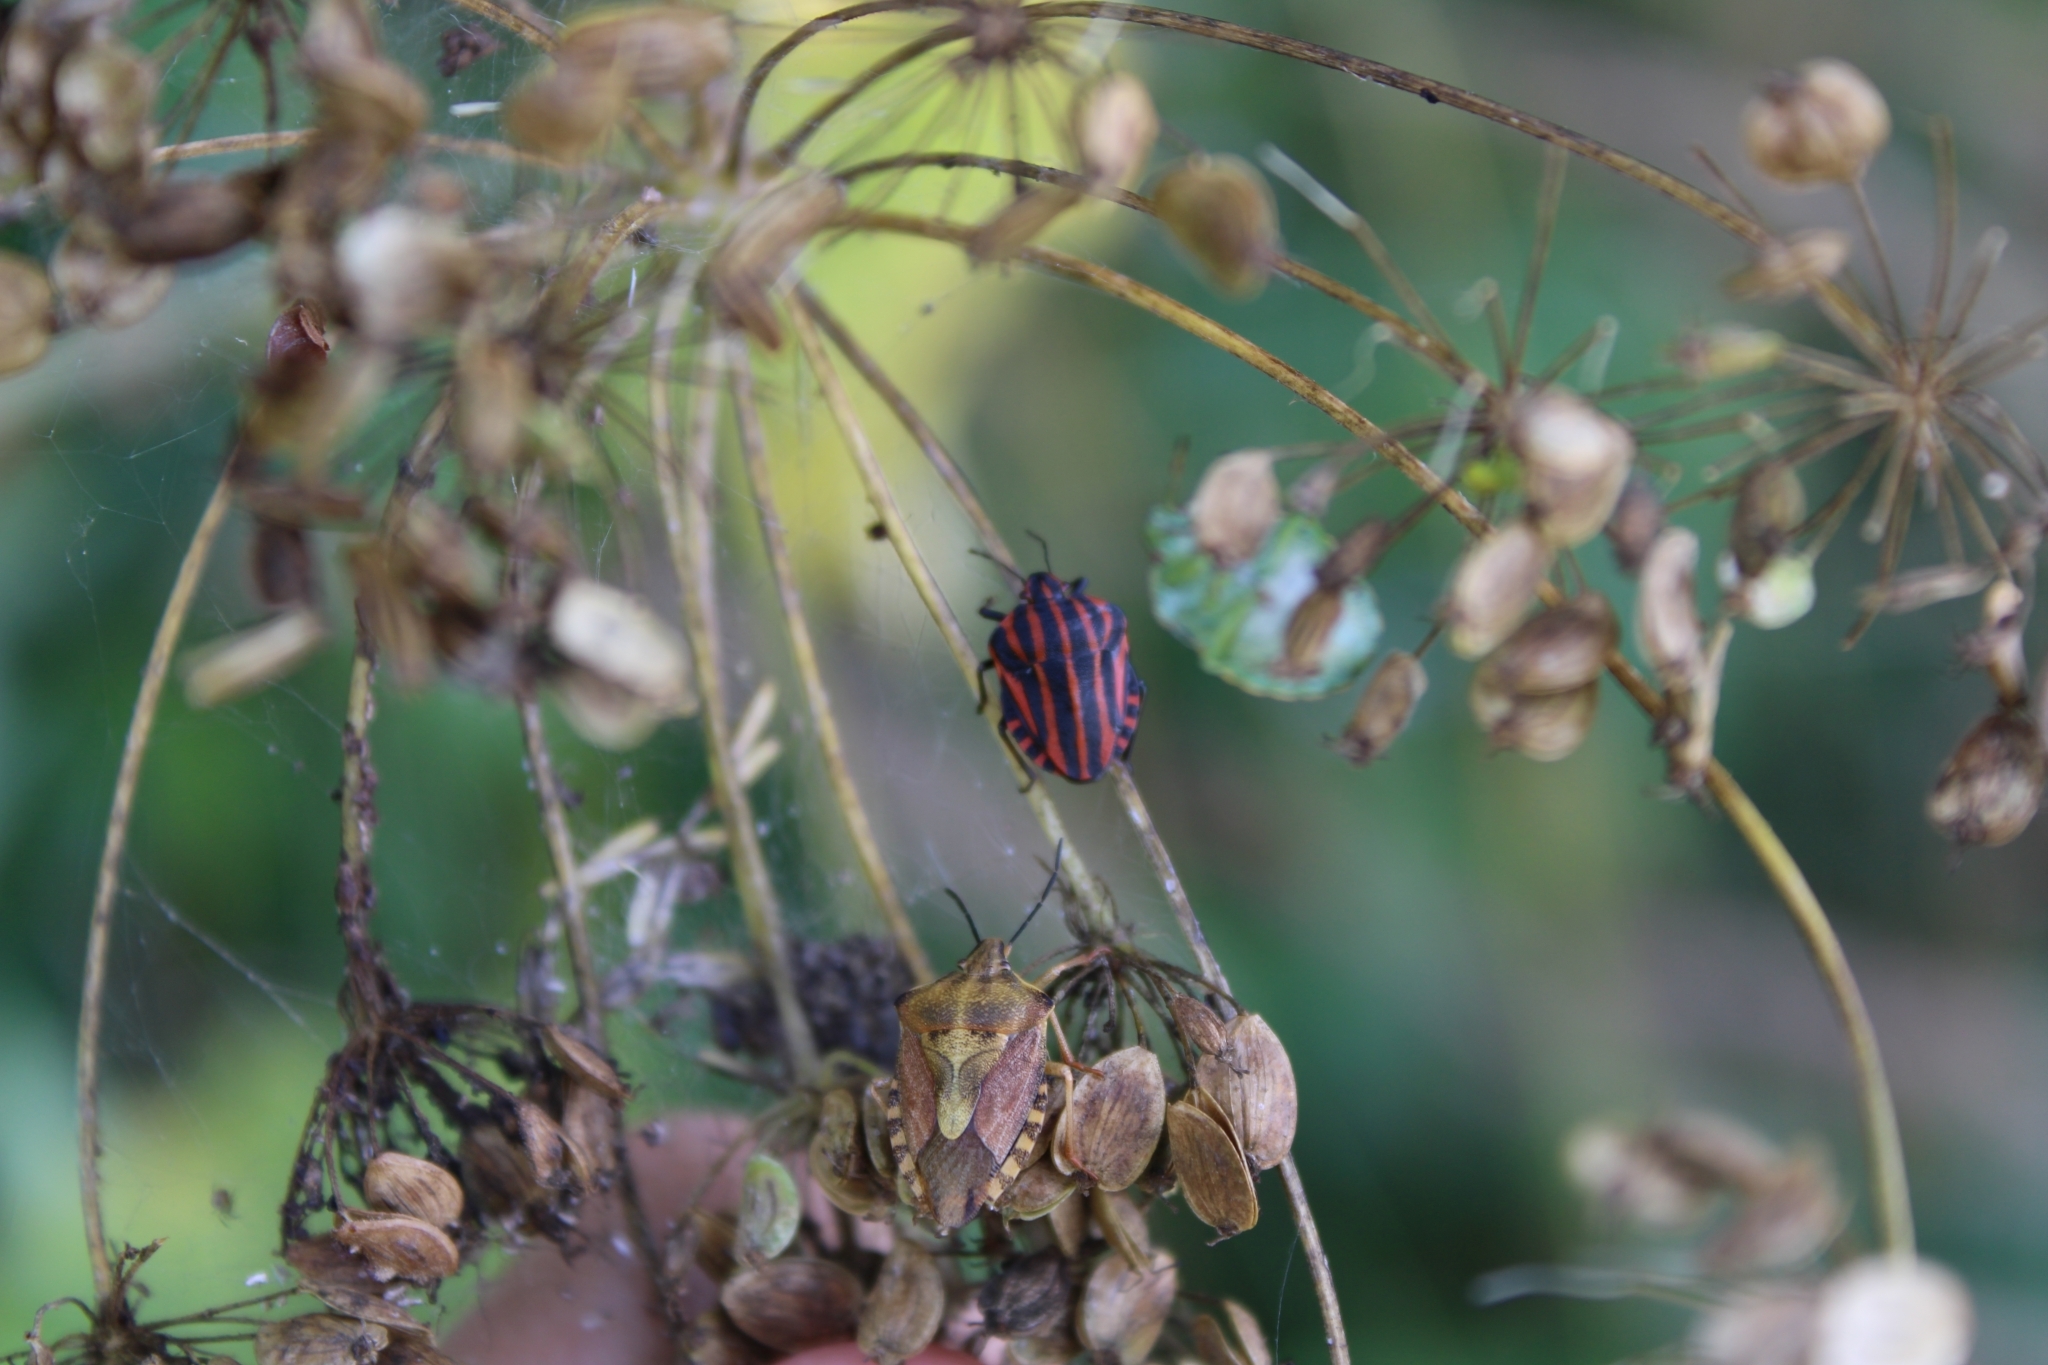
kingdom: Animalia
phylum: Arthropoda
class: Insecta
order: Hemiptera
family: Pentatomidae
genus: Carpocoris
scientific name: Carpocoris purpureipennis
